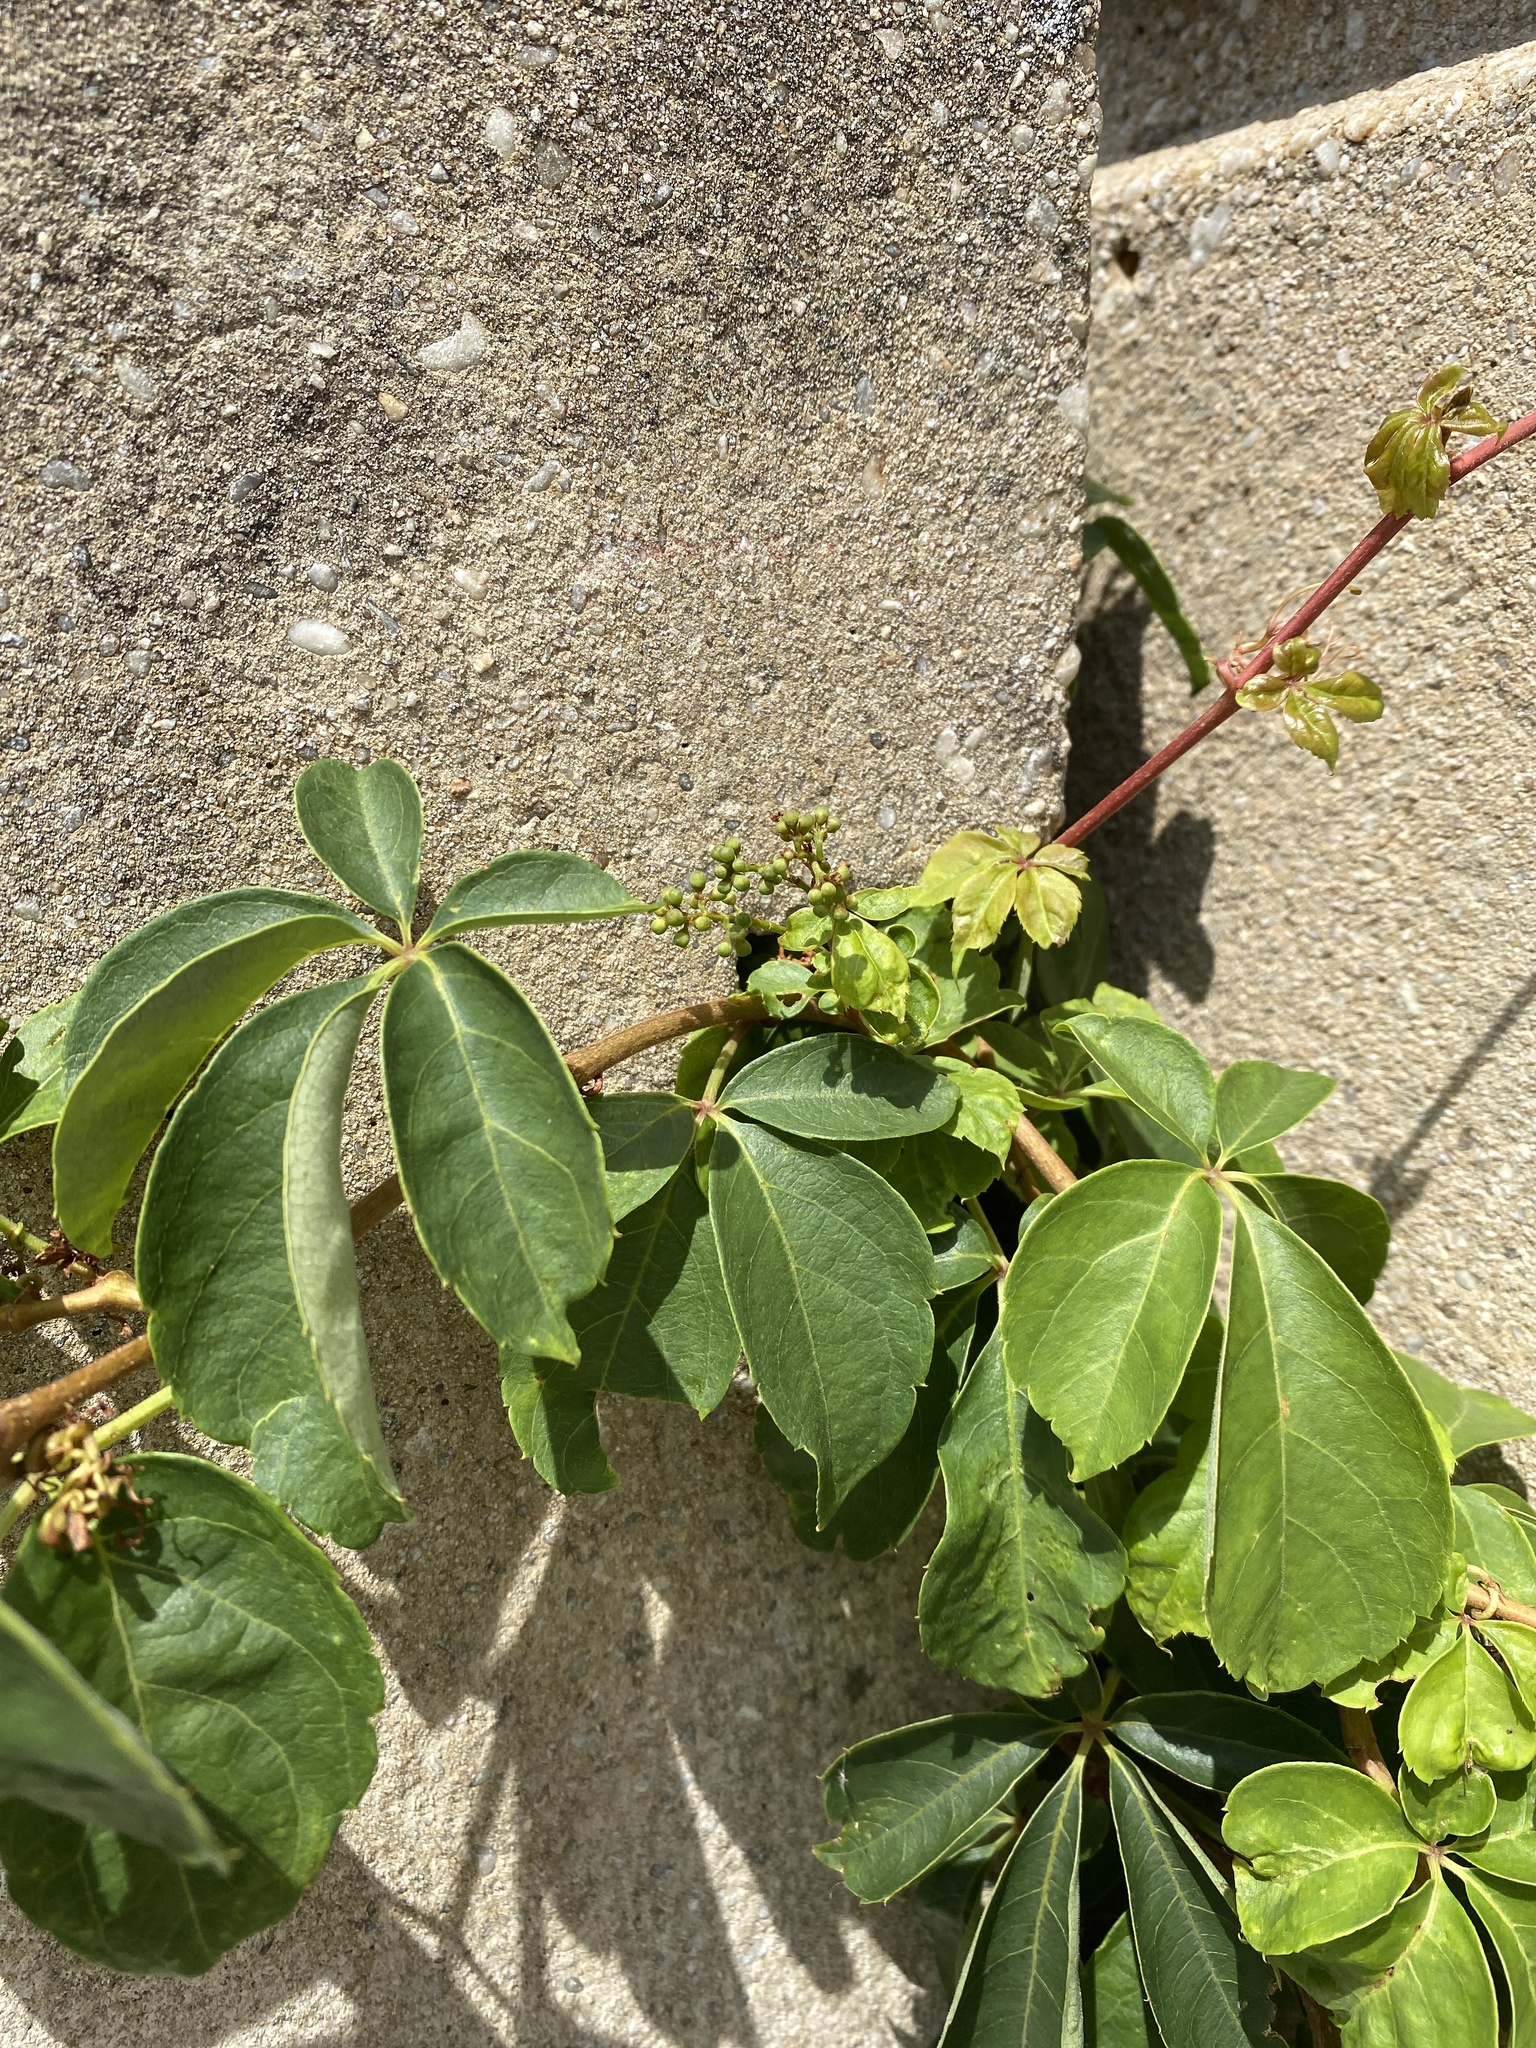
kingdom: Plantae
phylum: Tracheophyta
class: Magnoliopsida
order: Vitales
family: Vitaceae
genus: Parthenocissus
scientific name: Parthenocissus quinquefolia
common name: Virginia-creeper
